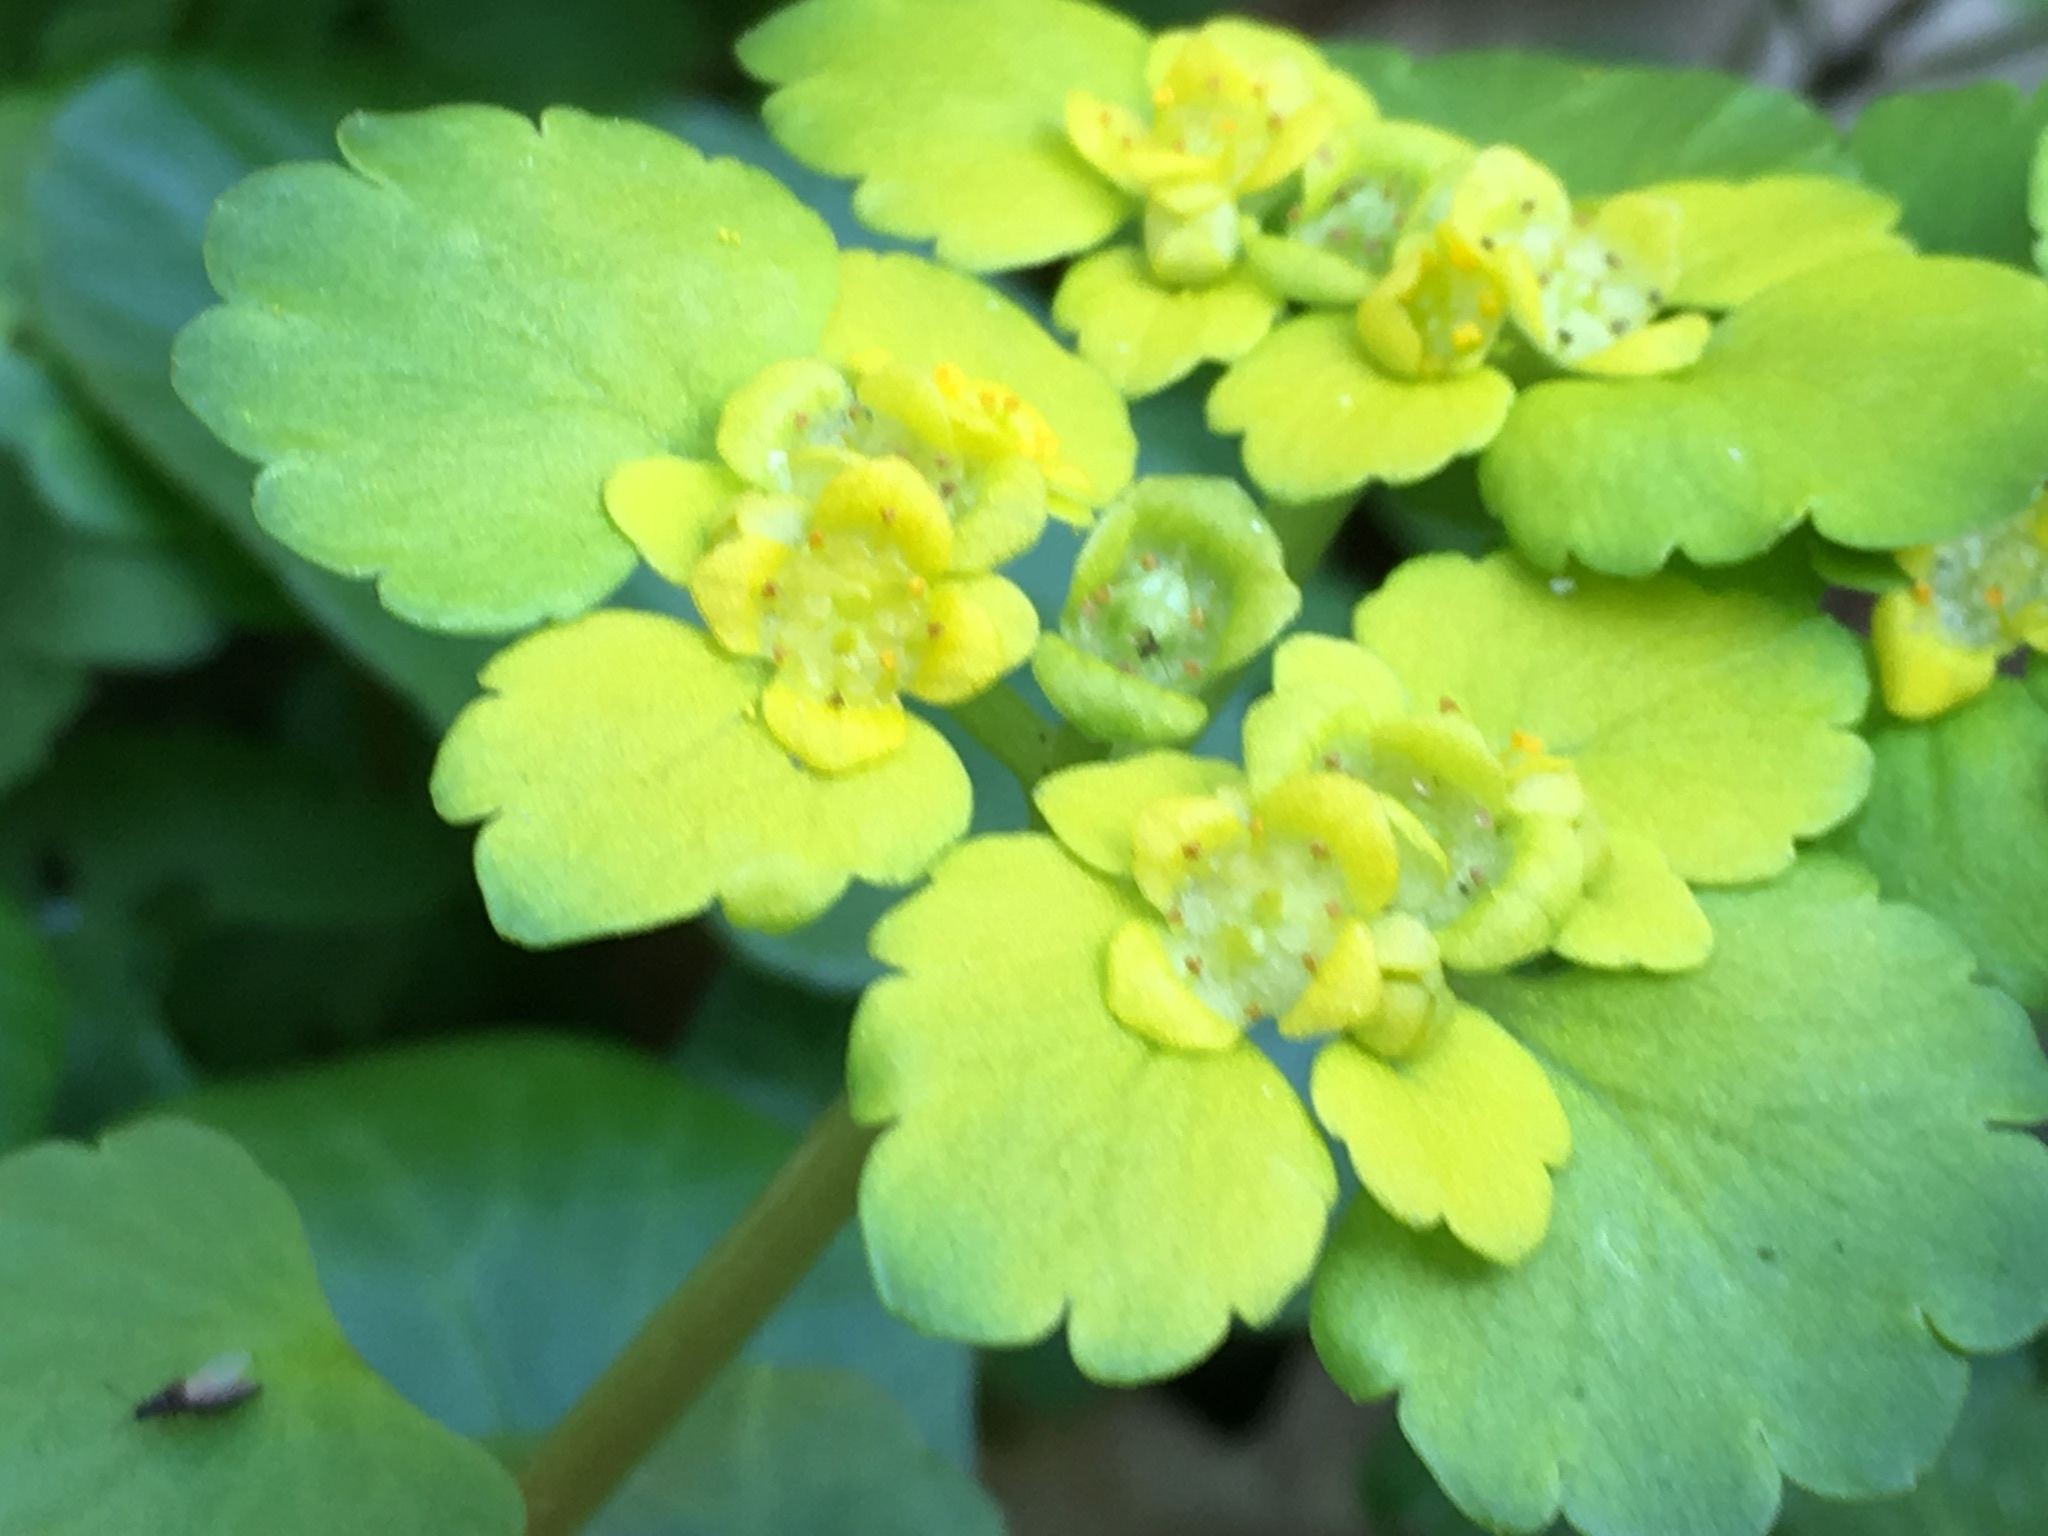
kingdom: Plantae
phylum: Tracheophyta
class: Magnoliopsida
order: Saxifragales
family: Saxifragaceae
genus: Chrysosplenium
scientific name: Chrysosplenium alternifolium
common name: Alternate-leaved golden-saxifrage
